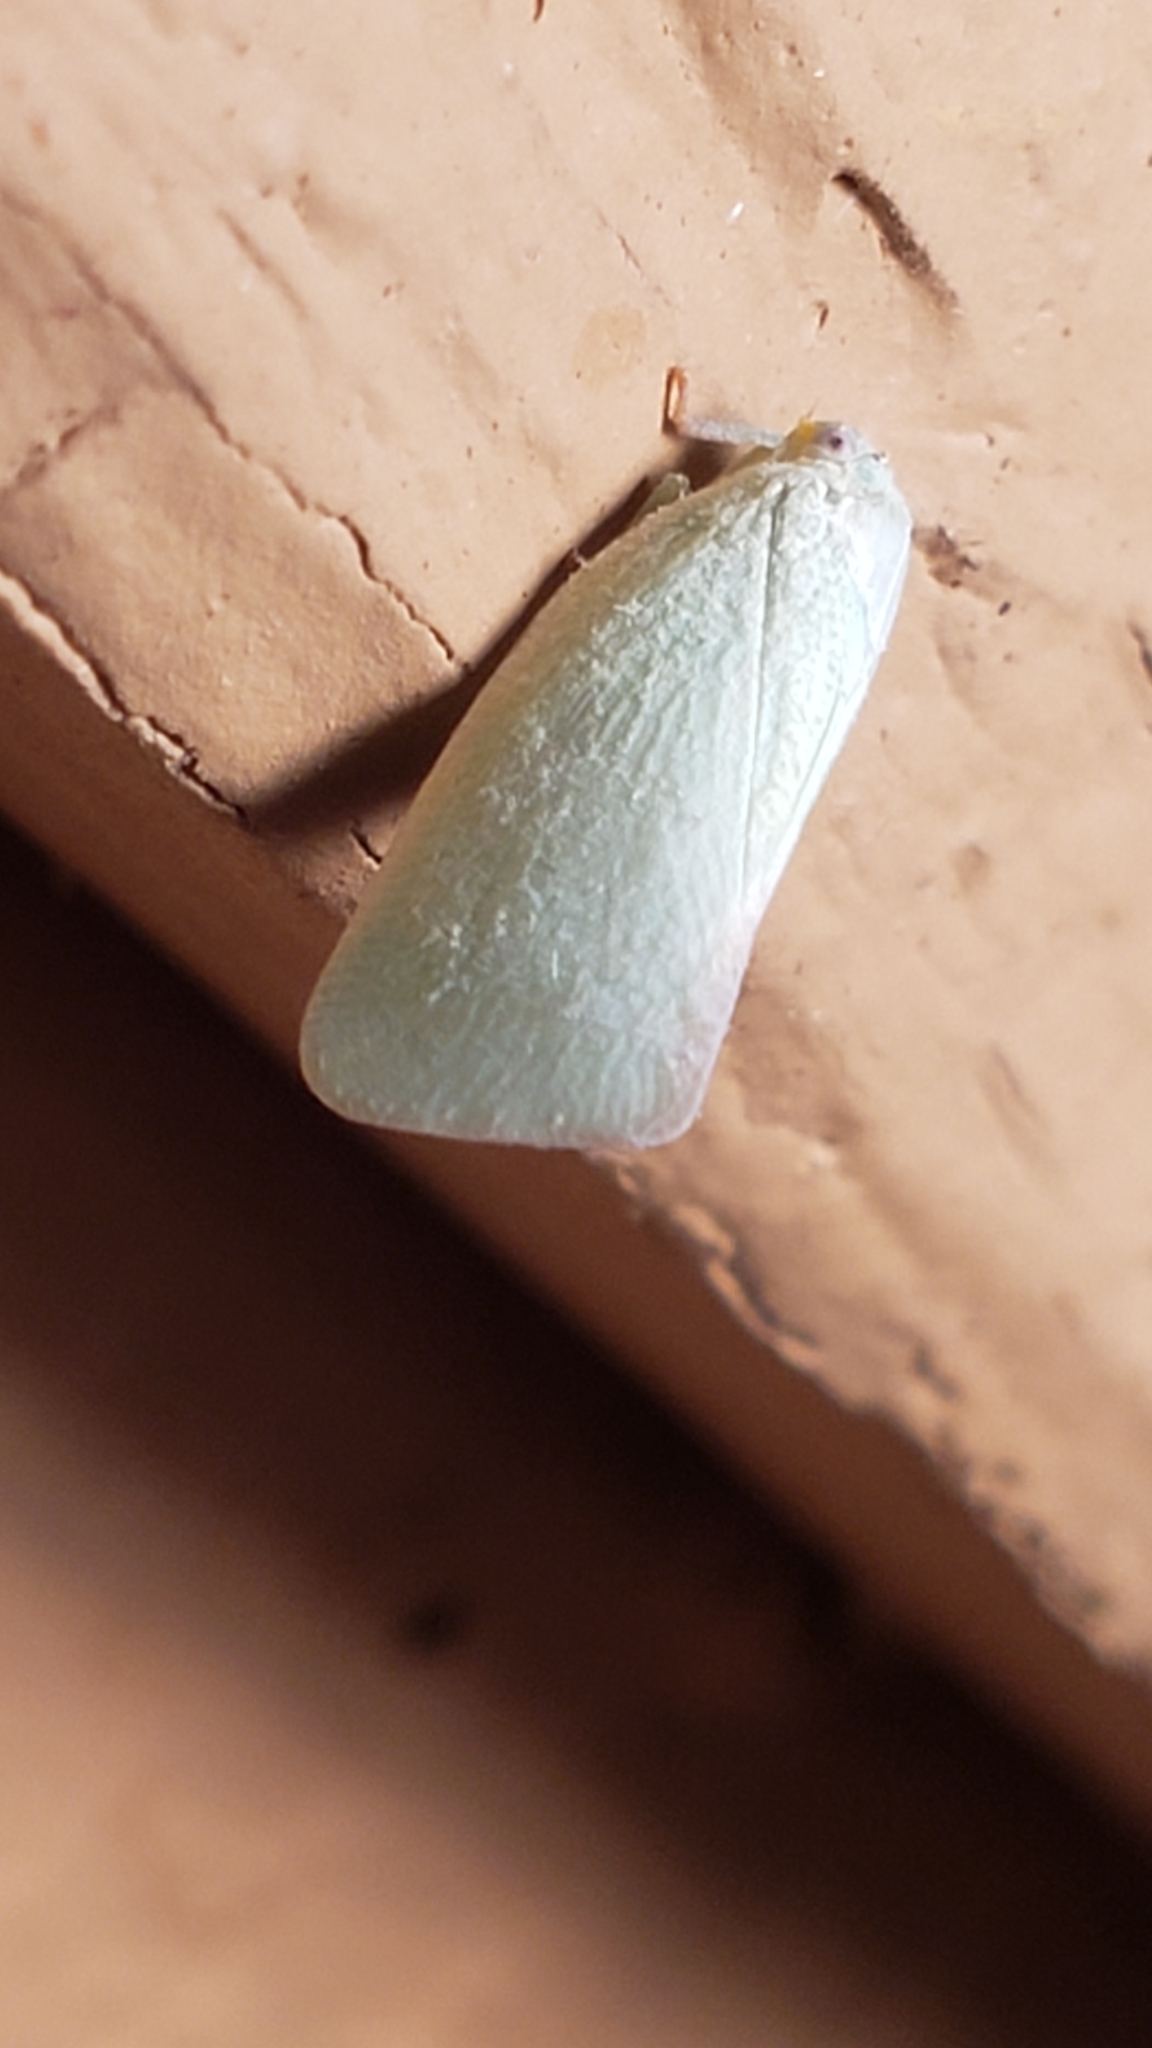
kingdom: Animalia
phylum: Arthropoda
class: Insecta
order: Hemiptera
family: Flatidae
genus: Flatormenis
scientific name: Flatormenis proxima
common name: Northern flatid planthopper
